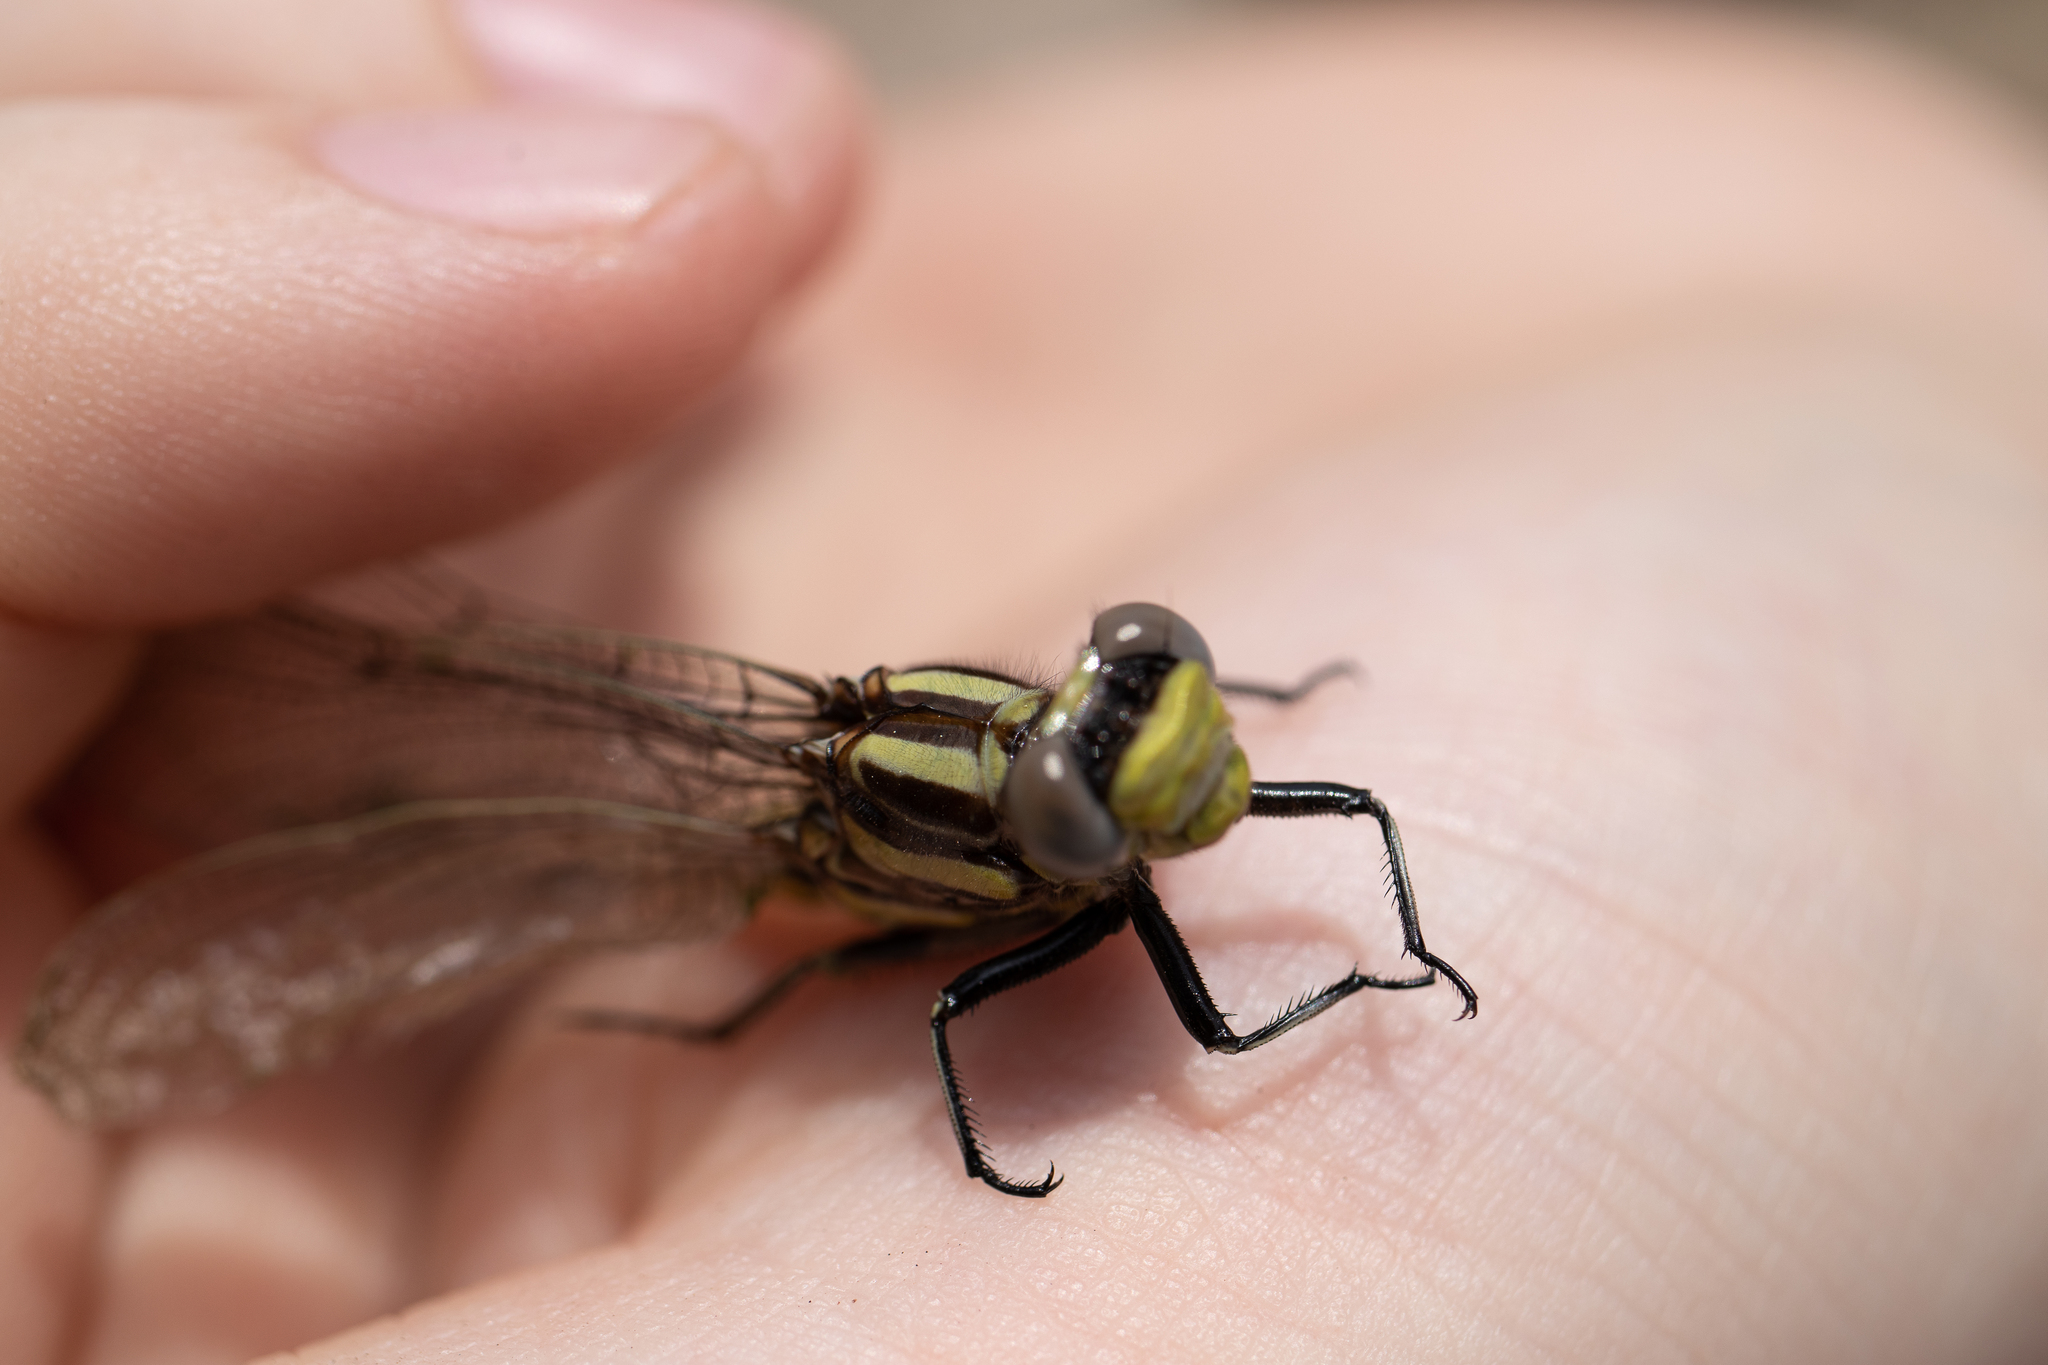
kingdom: Animalia
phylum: Arthropoda
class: Insecta
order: Odonata
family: Gomphidae
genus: Phanogomphus
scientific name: Phanogomphus spicatus
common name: Dusky clubtail
